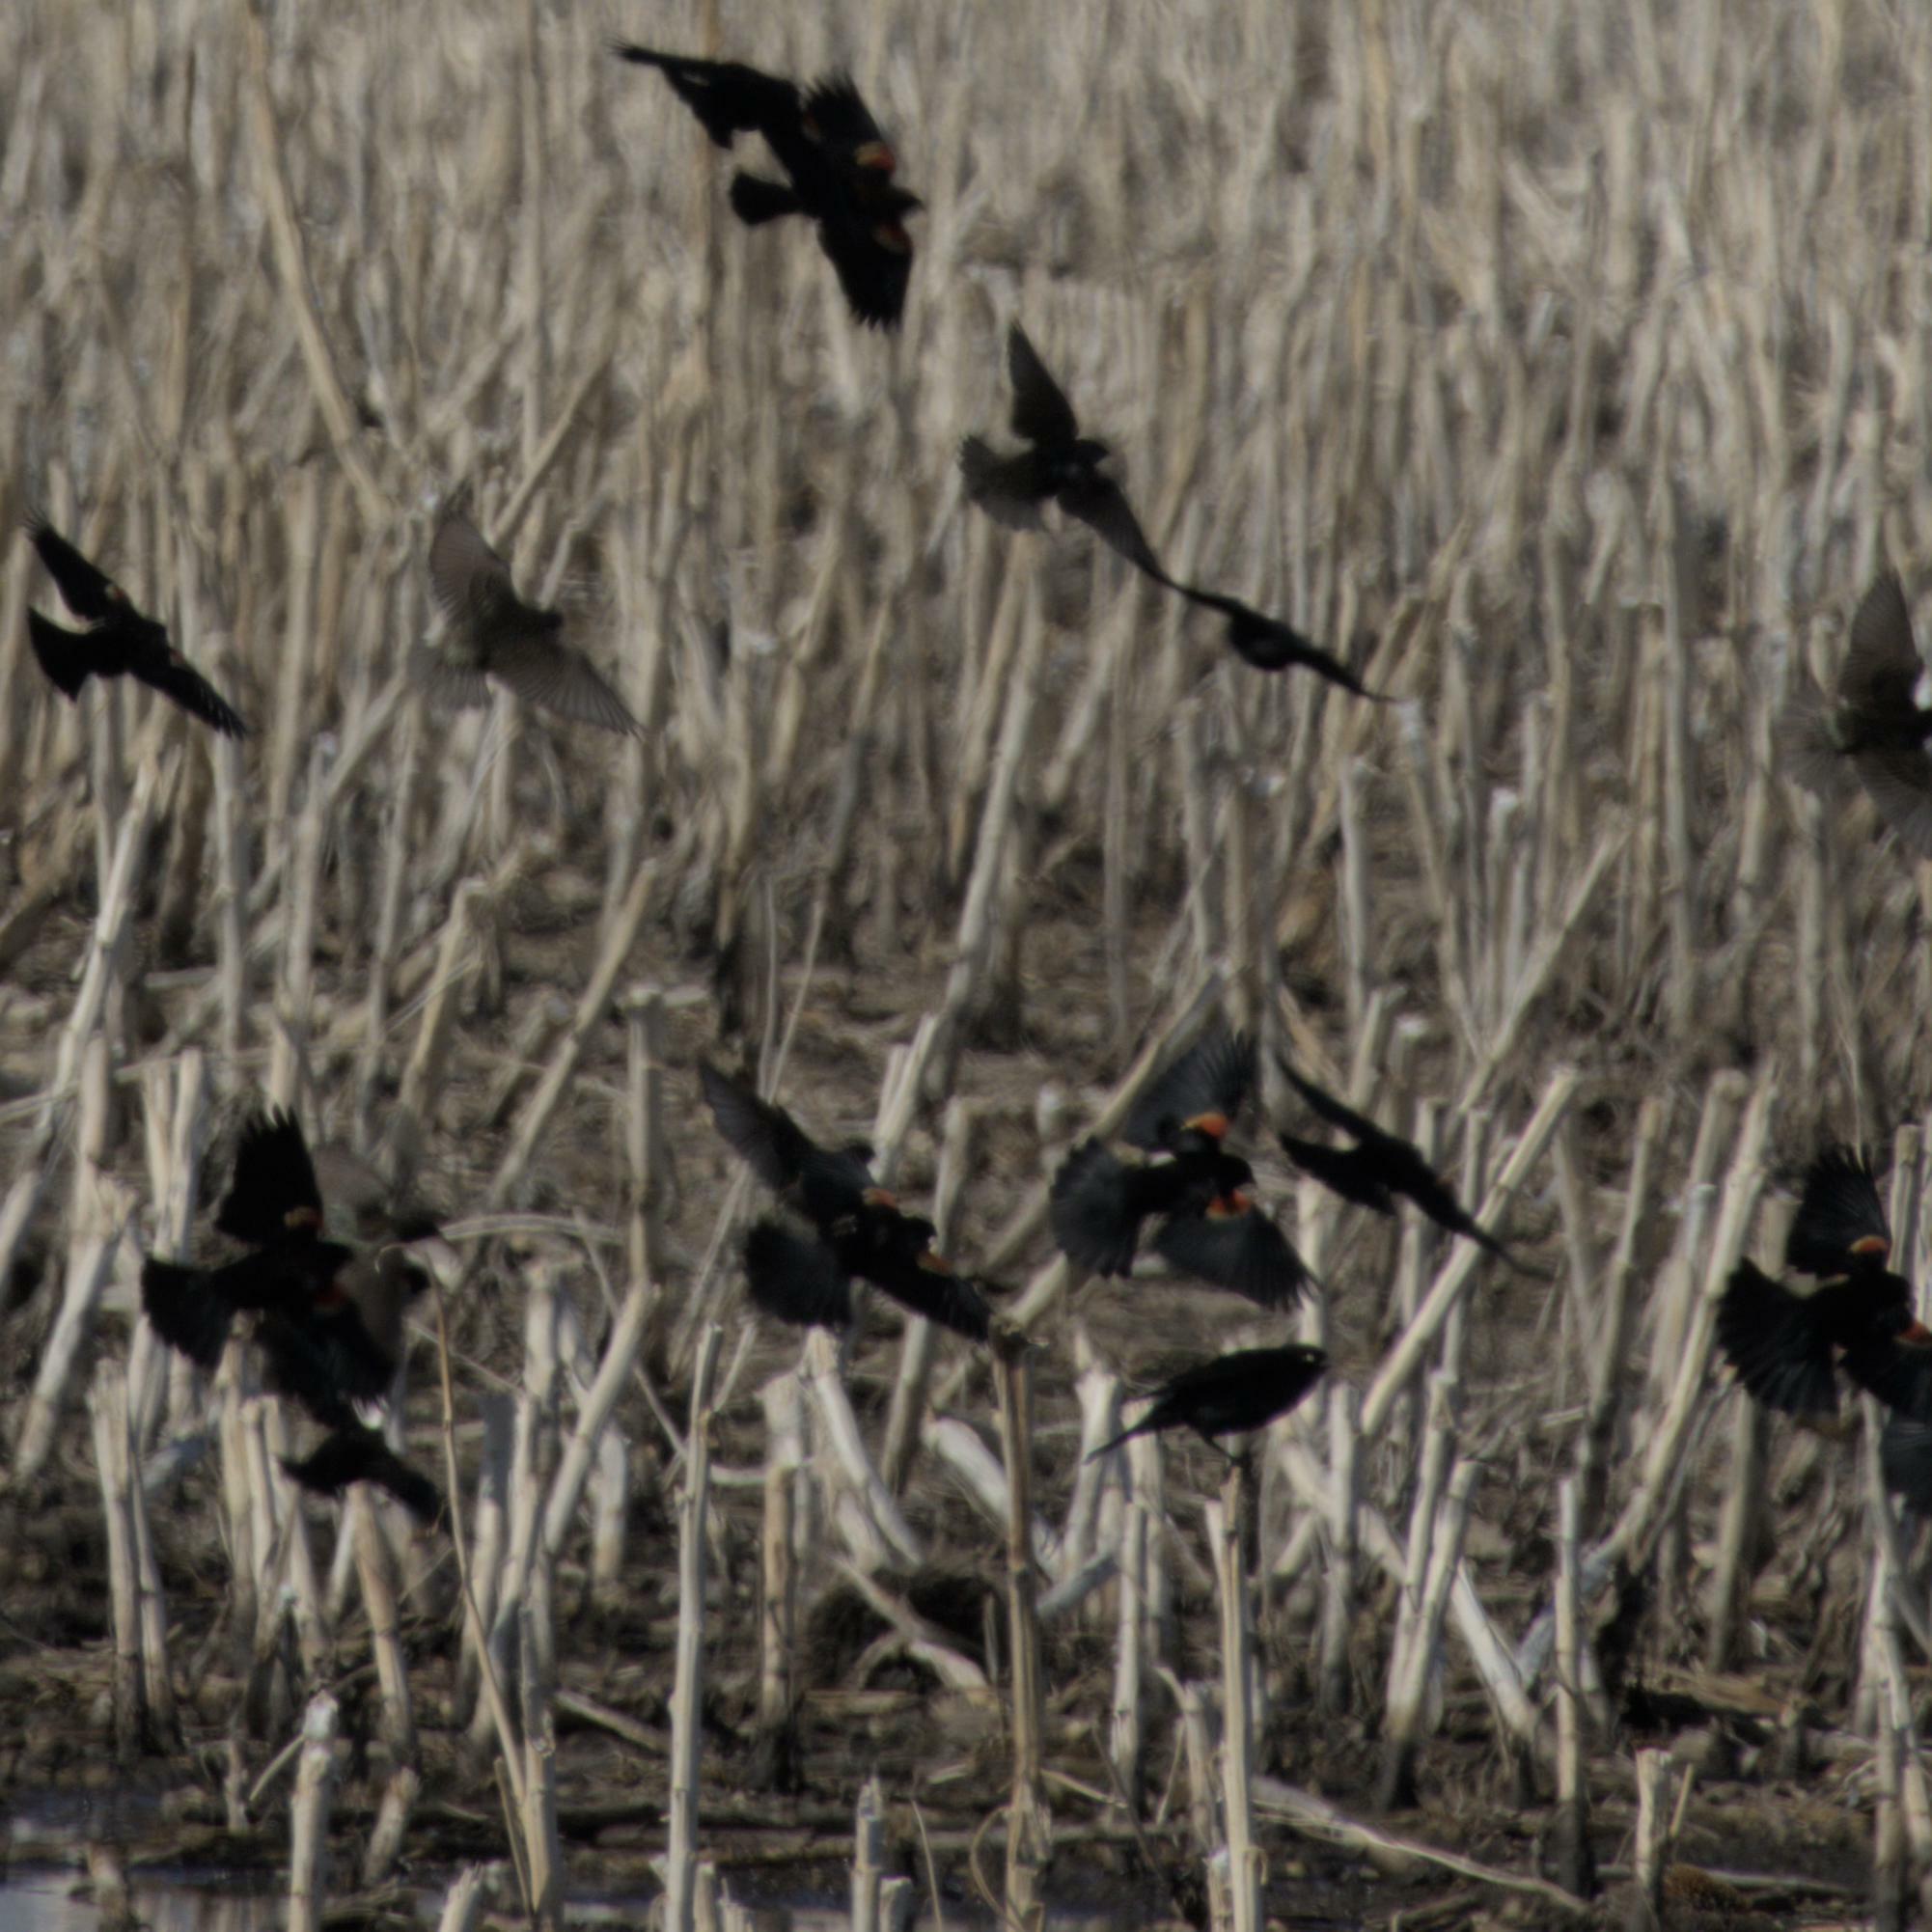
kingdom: Animalia
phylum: Chordata
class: Aves
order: Passeriformes
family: Icteridae
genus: Agelaius
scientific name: Agelaius phoeniceus
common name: Red-winged blackbird
